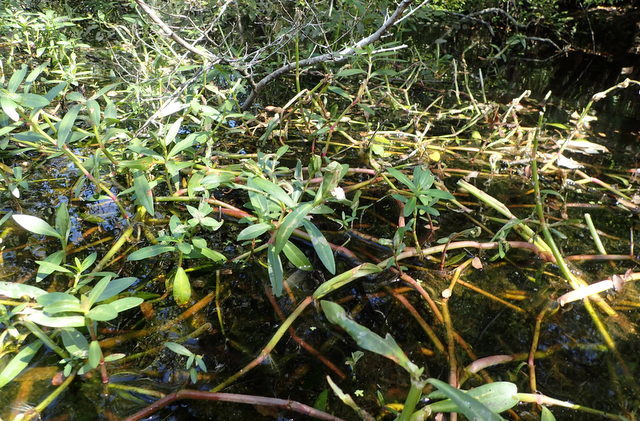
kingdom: Plantae
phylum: Tracheophyta
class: Magnoliopsida
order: Caryophyllales
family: Amaranthaceae
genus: Alternanthera
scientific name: Alternanthera philoxeroides
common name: Alligatorweed
